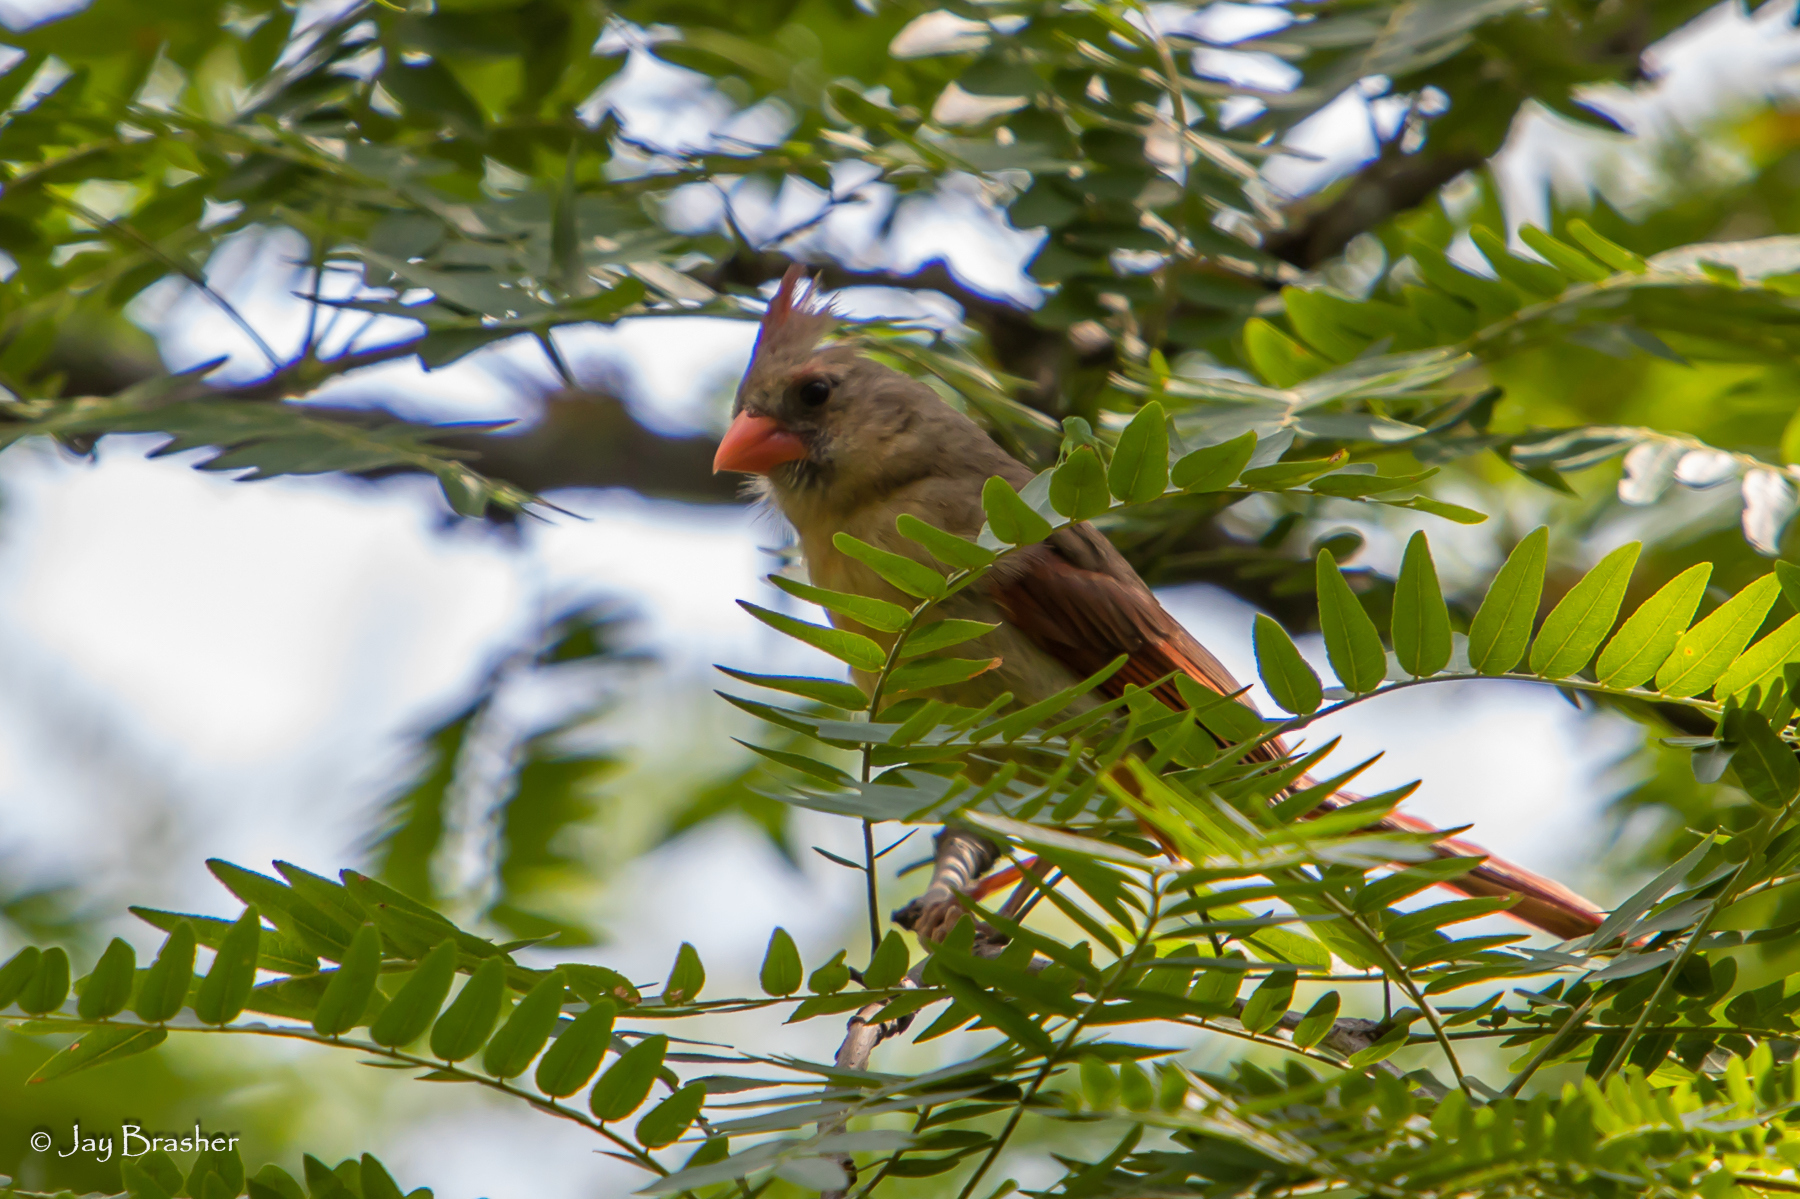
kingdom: Animalia
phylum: Chordata
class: Aves
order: Passeriformes
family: Cardinalidae
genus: Cardinalis
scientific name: Cardinalis cardinalis
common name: Northern cardinal
